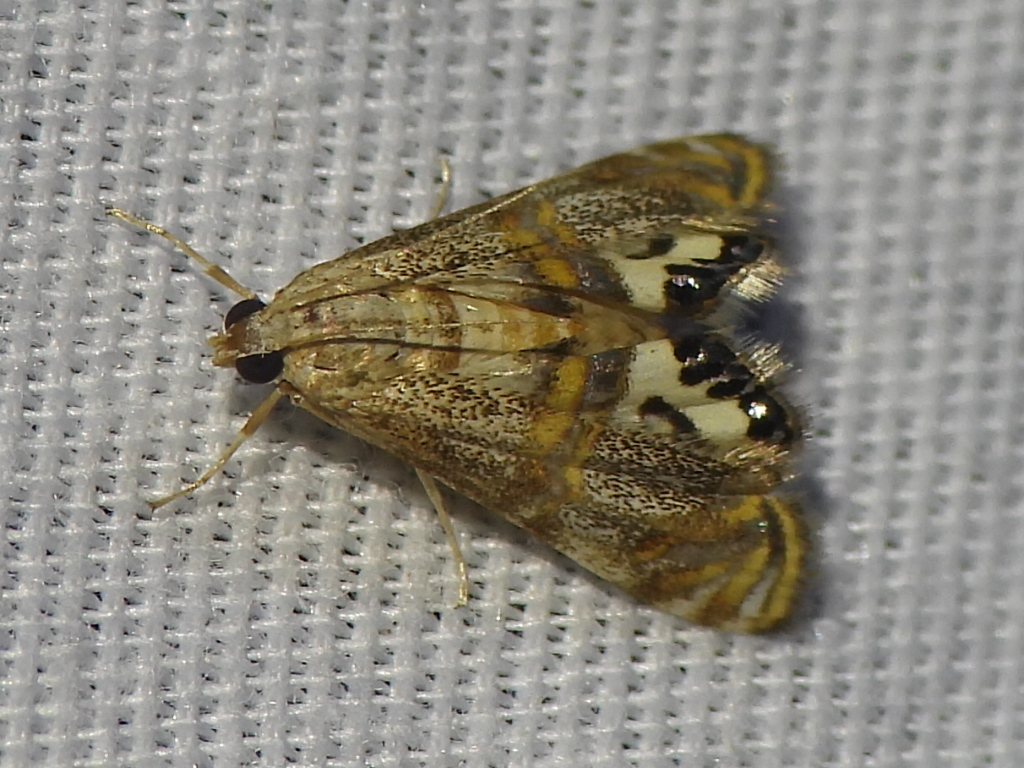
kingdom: Animalia
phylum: Arthropoda
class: Insecta
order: Lepidoptera
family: Crambidae
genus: Petrophila
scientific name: Petrophila bifascialis
